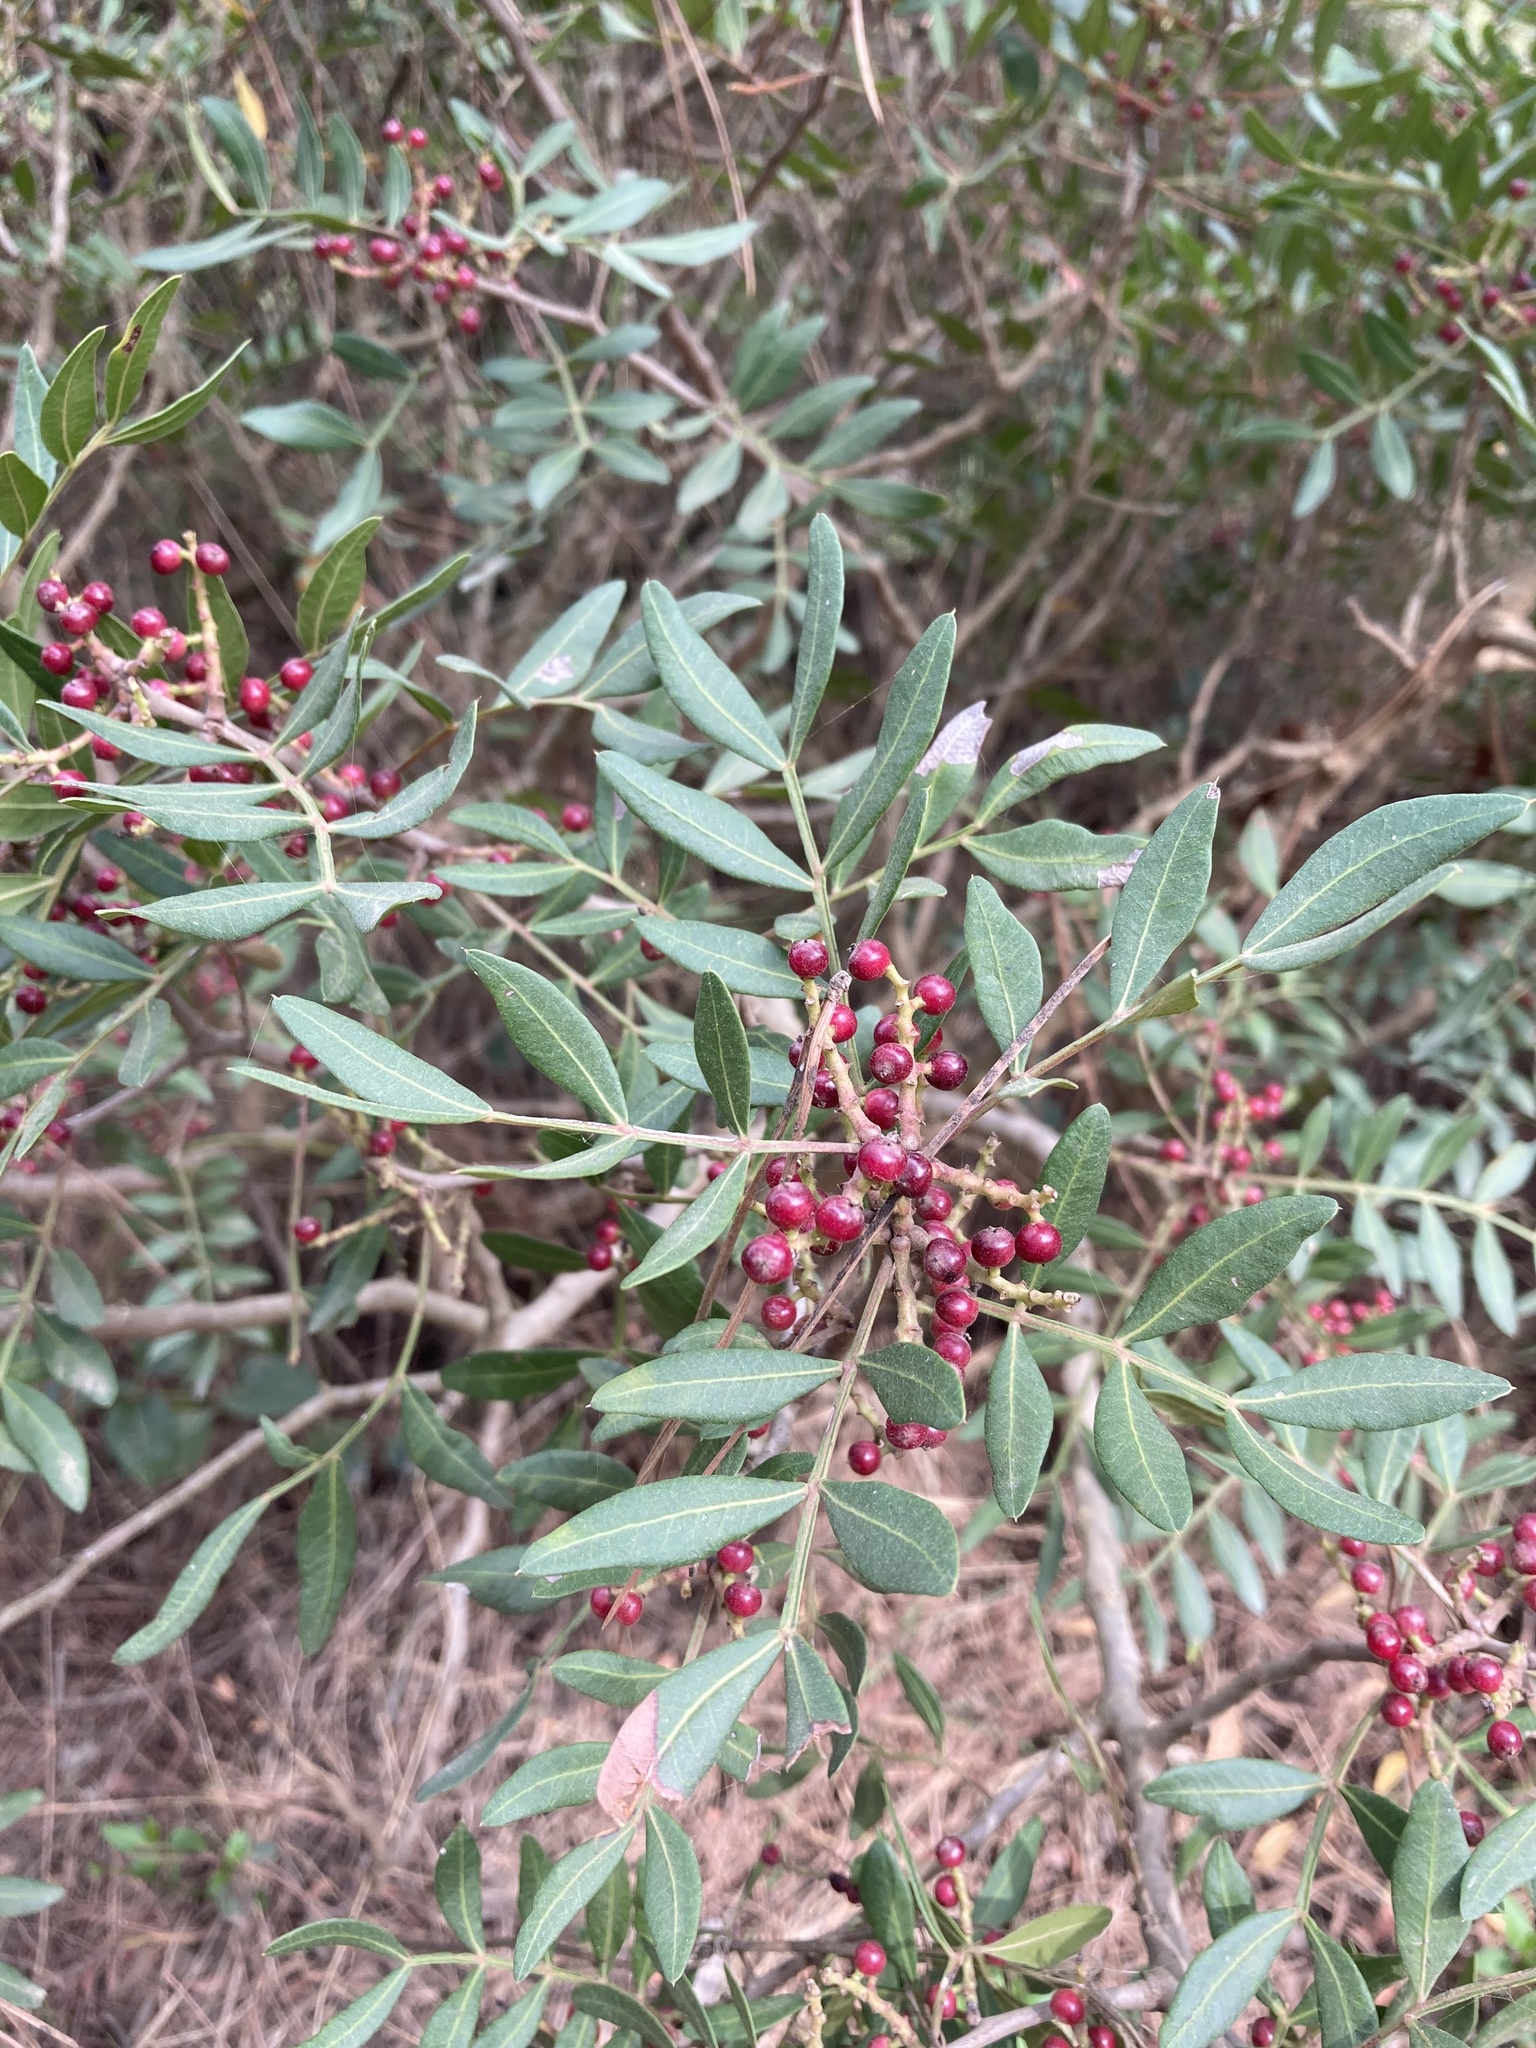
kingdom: Plantae
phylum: Tracheophyta
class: Magnoliopsida
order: Sapindales
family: Anacardiaceae
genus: Pistacia
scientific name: Pistacia lentiscus
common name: Lentisk
